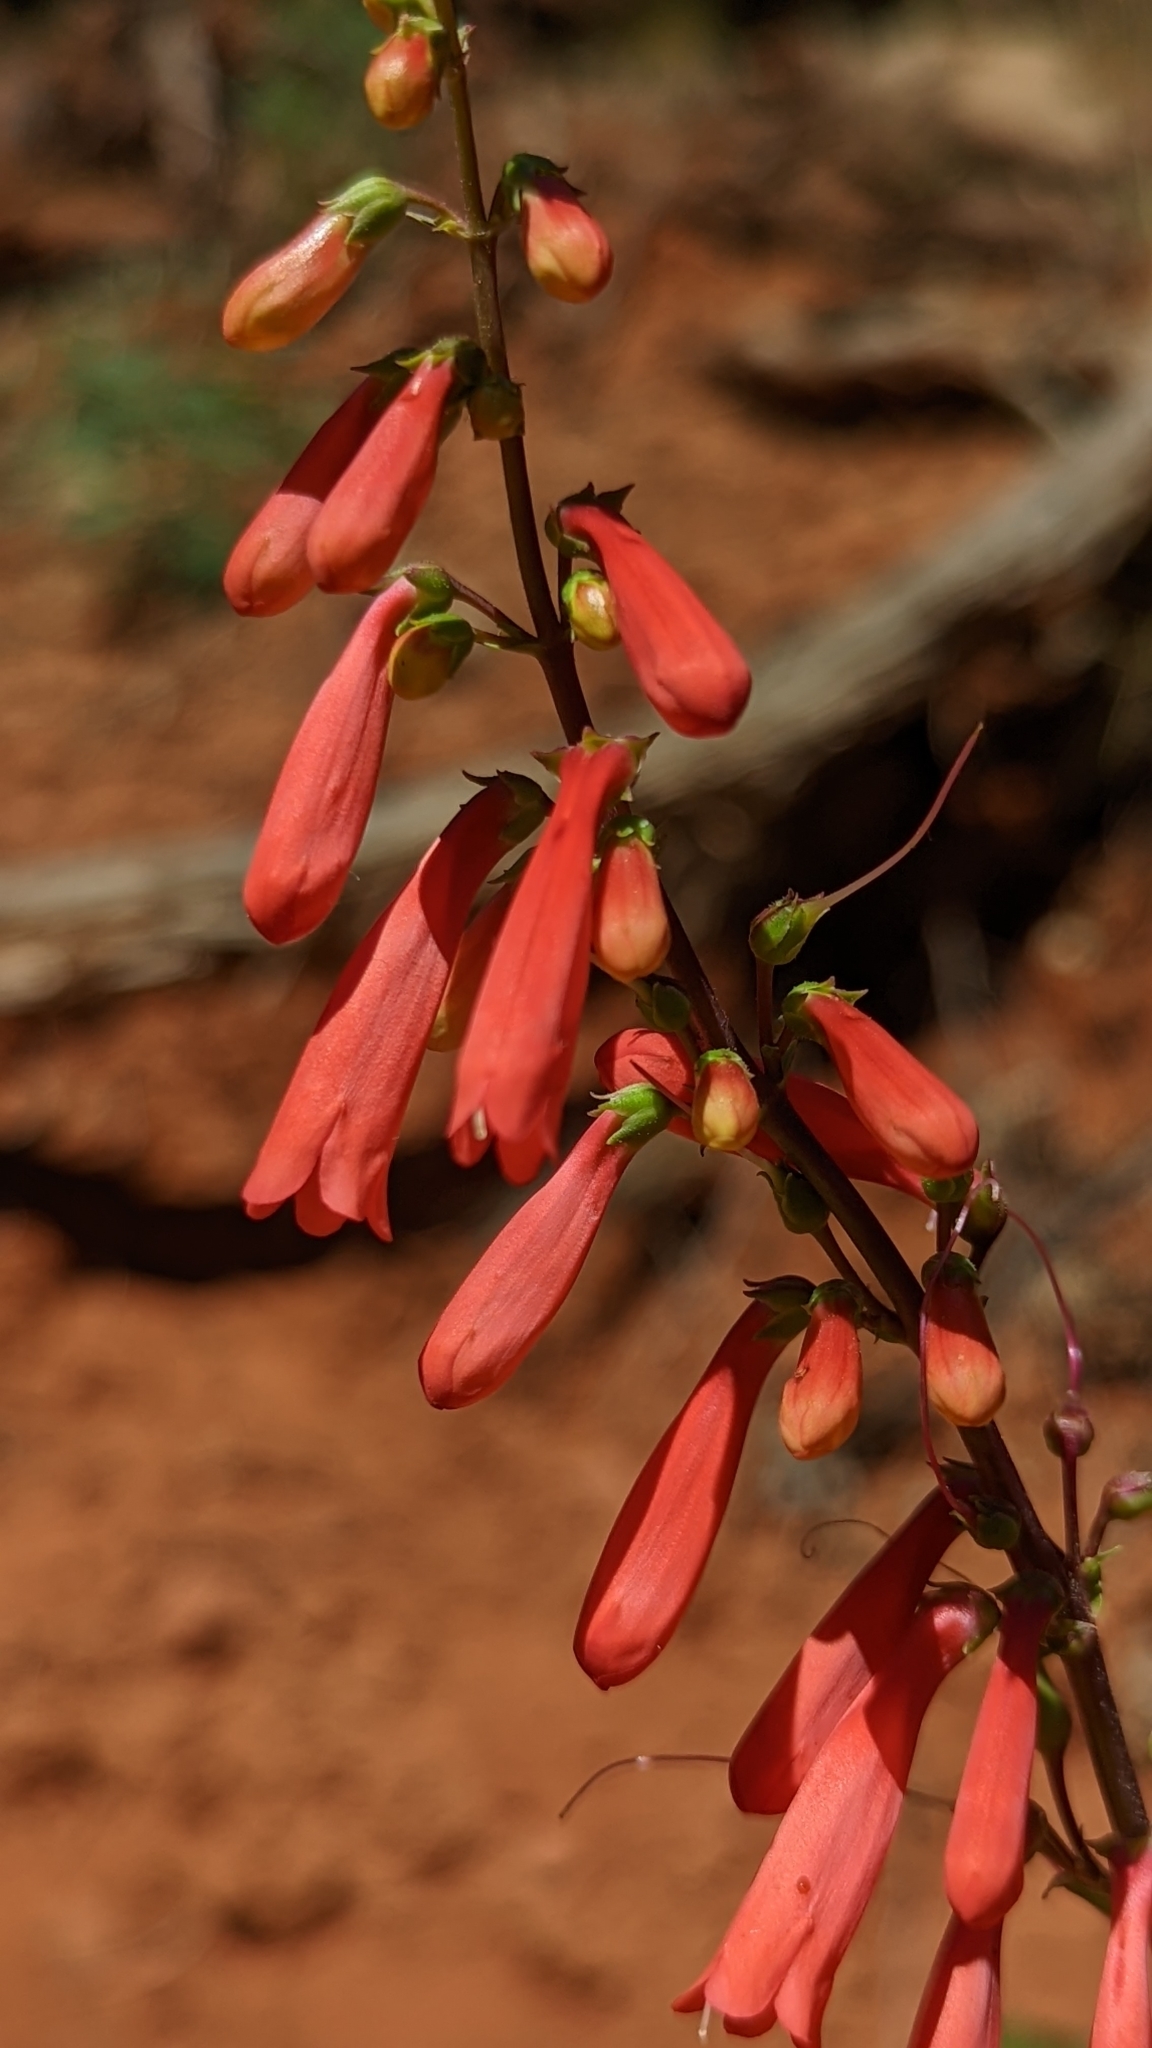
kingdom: Plantae
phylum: Tracheophyta
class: Magnoliopsida
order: Lamiales
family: Plantaginaceae
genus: Penstemon
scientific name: Penstemon eatonii
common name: Eaton's penstemon
